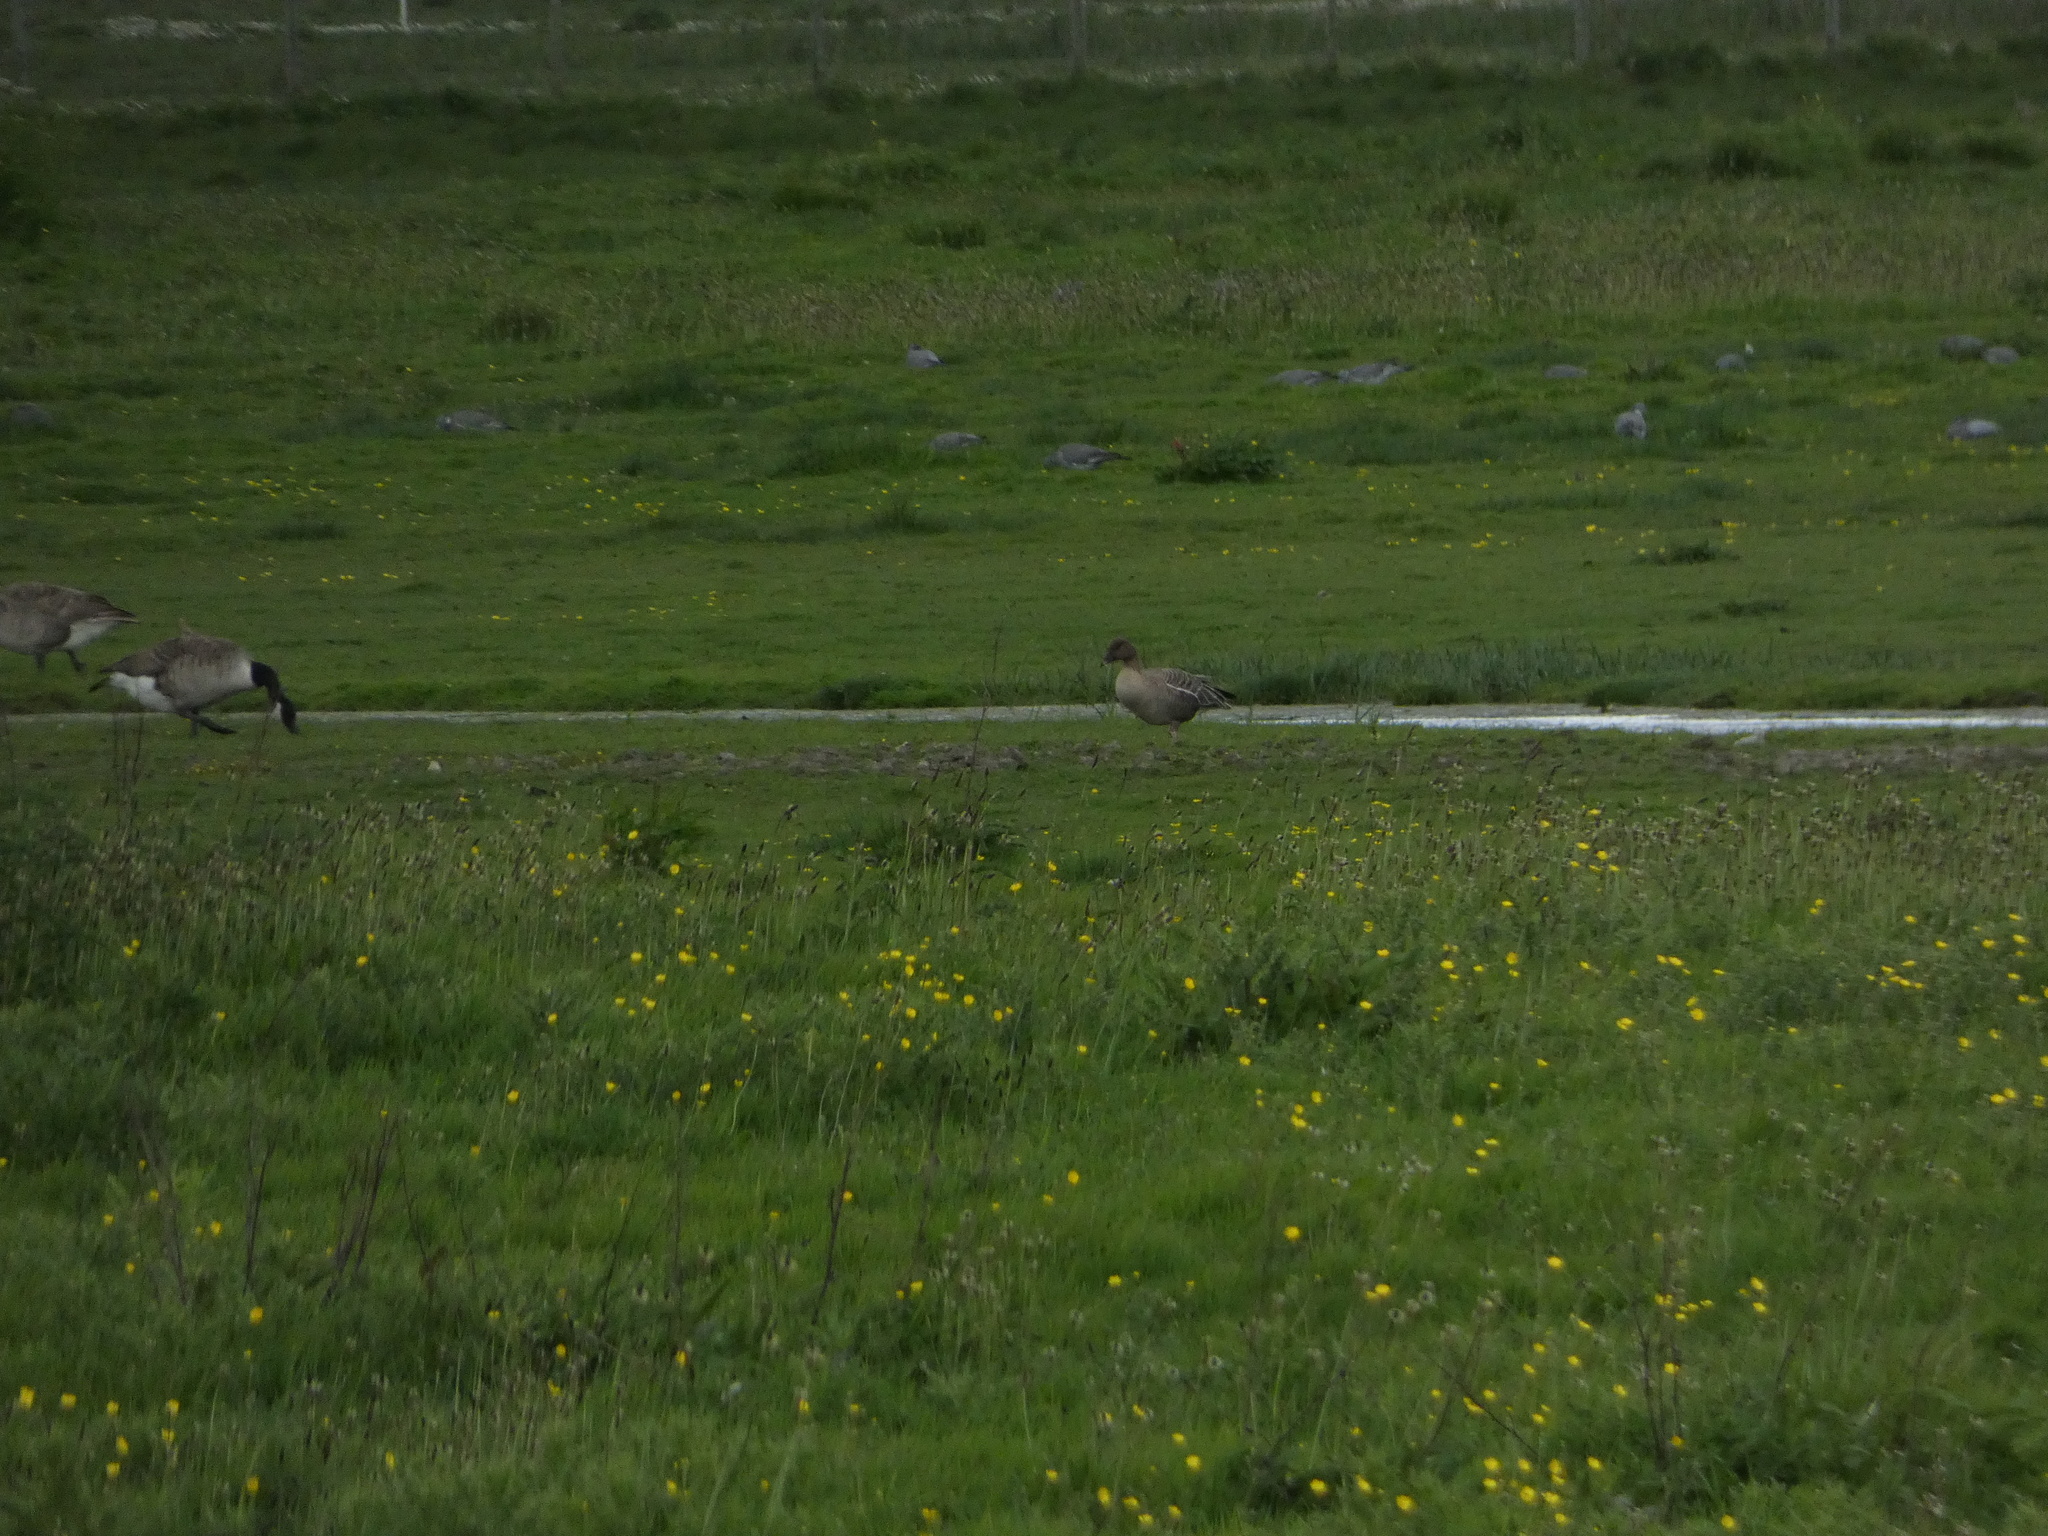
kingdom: Animalia
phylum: Chordata
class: Aves
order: Anseriformes
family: Anatidae
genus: Anser
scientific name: Anser brachyrhynchus
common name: Pink-footed goose
